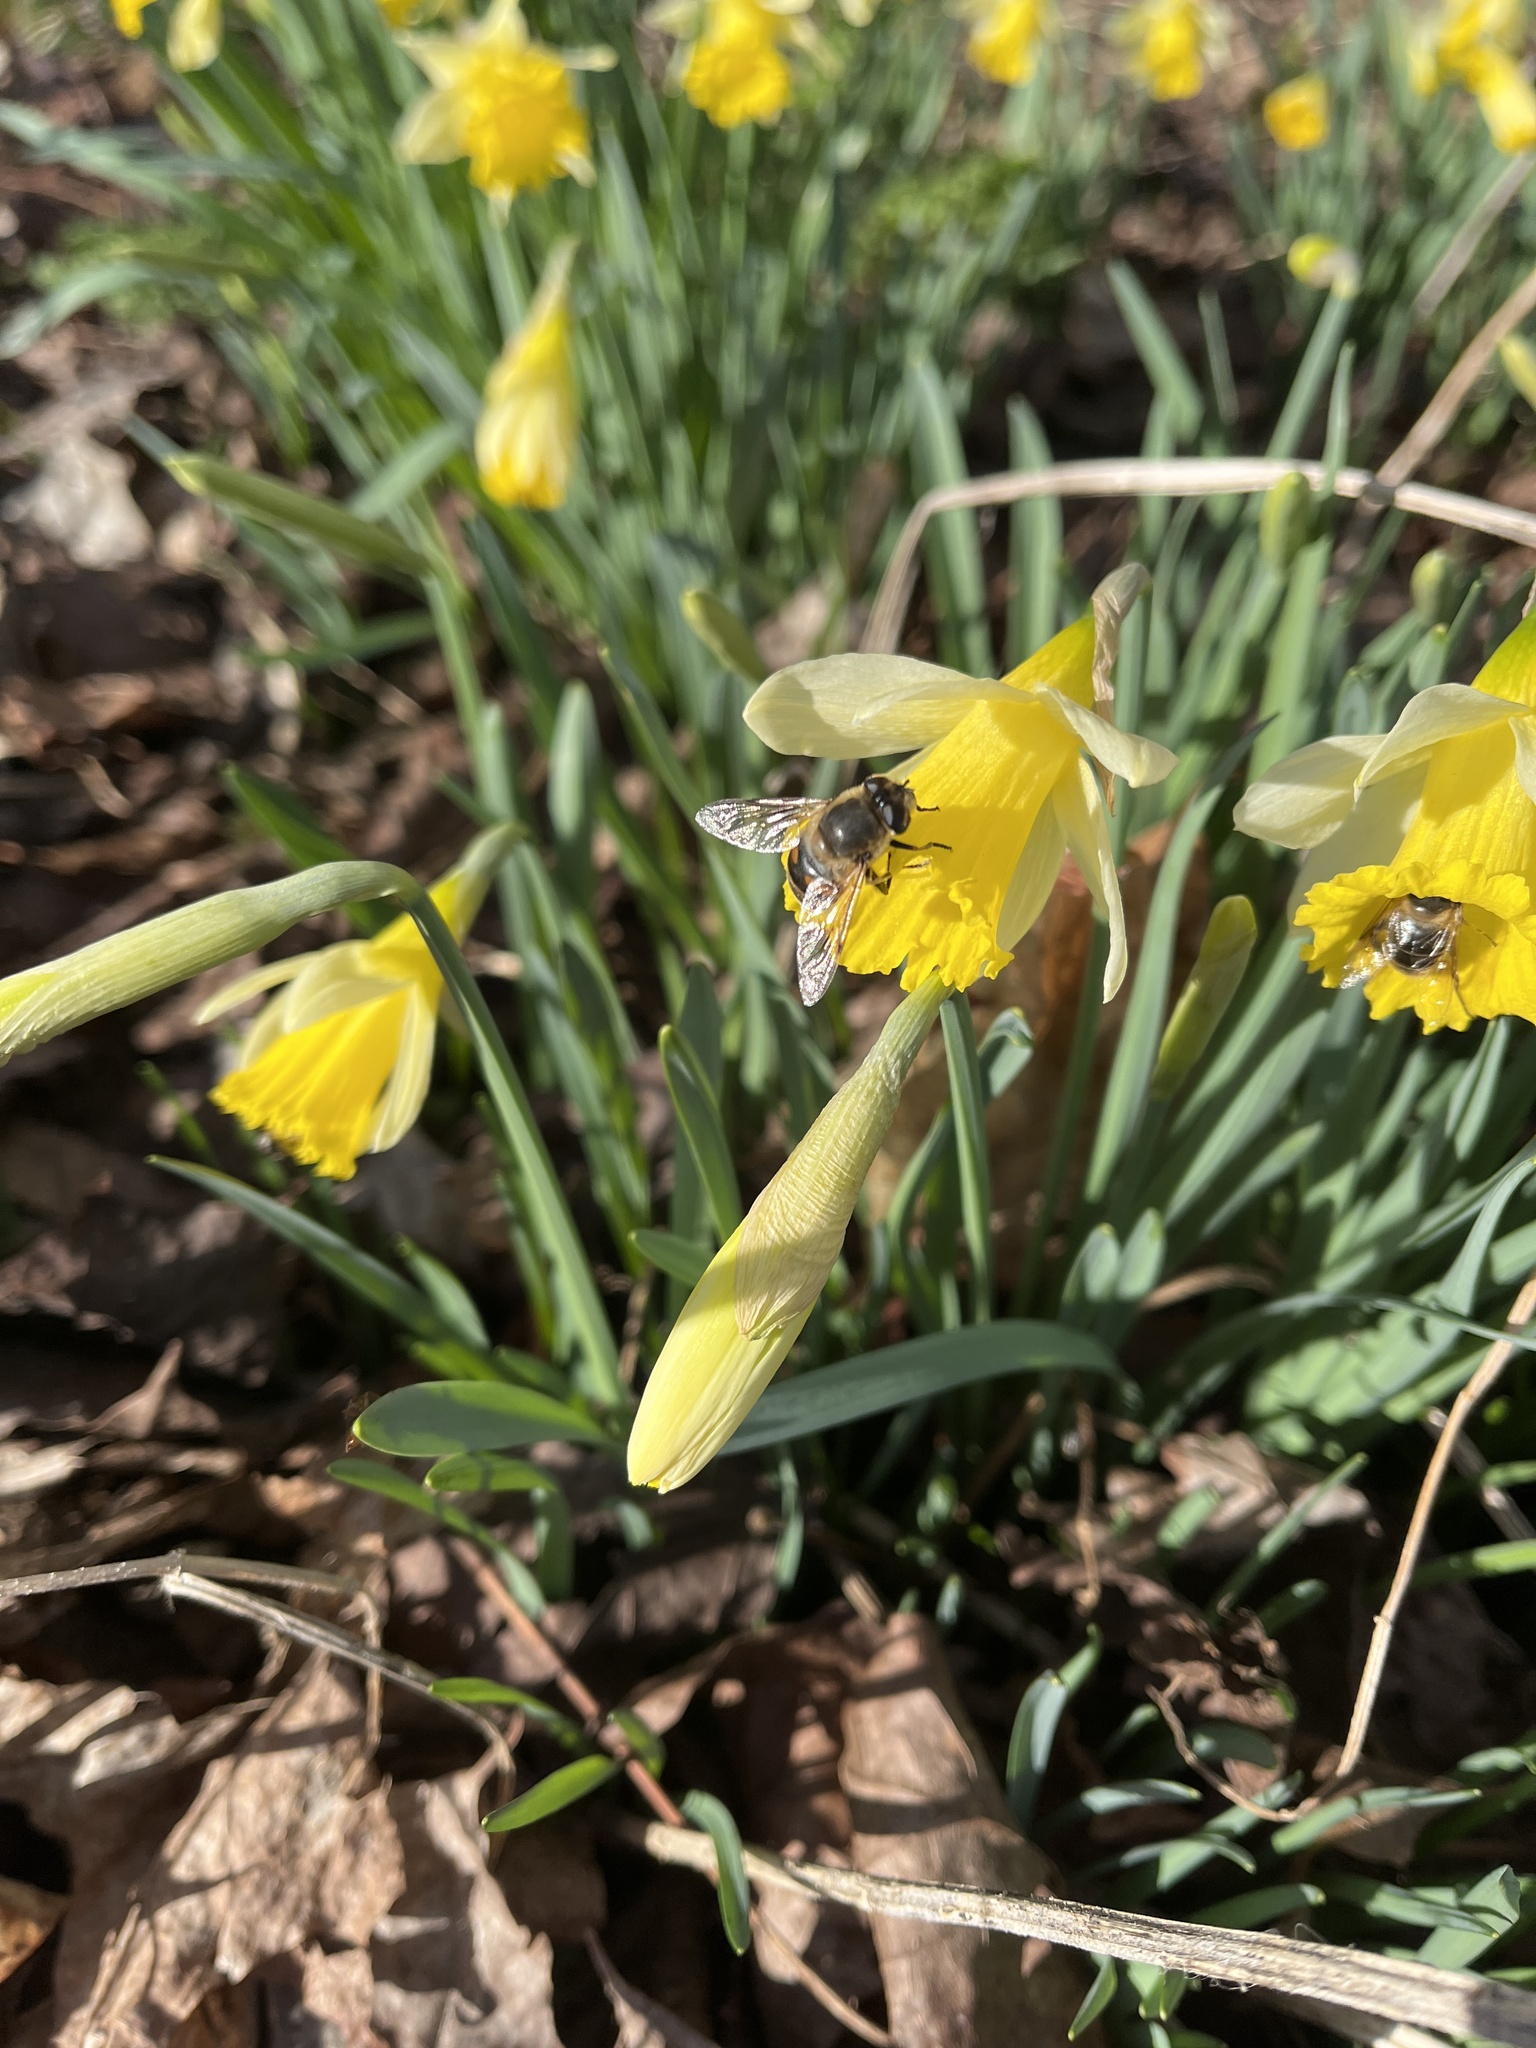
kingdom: Animalia
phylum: Arthropoda
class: Insecta
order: Diptera
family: Syrphidae
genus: Eristalis
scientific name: Eristalis tenax
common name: Drone fly
